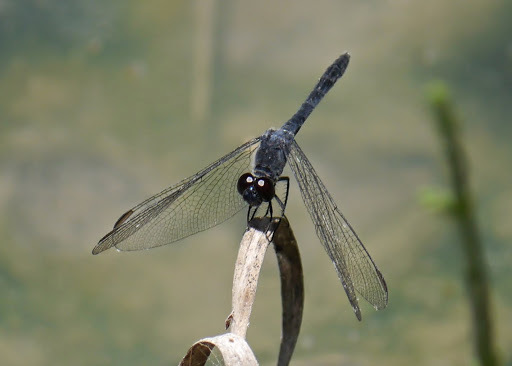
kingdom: Animalia
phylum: Arthropoda
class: Insecta
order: Odonata
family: Libellulidae
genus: Erythrodiplax
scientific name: Erythrodiplax berenice
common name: Seaside dragonlet
